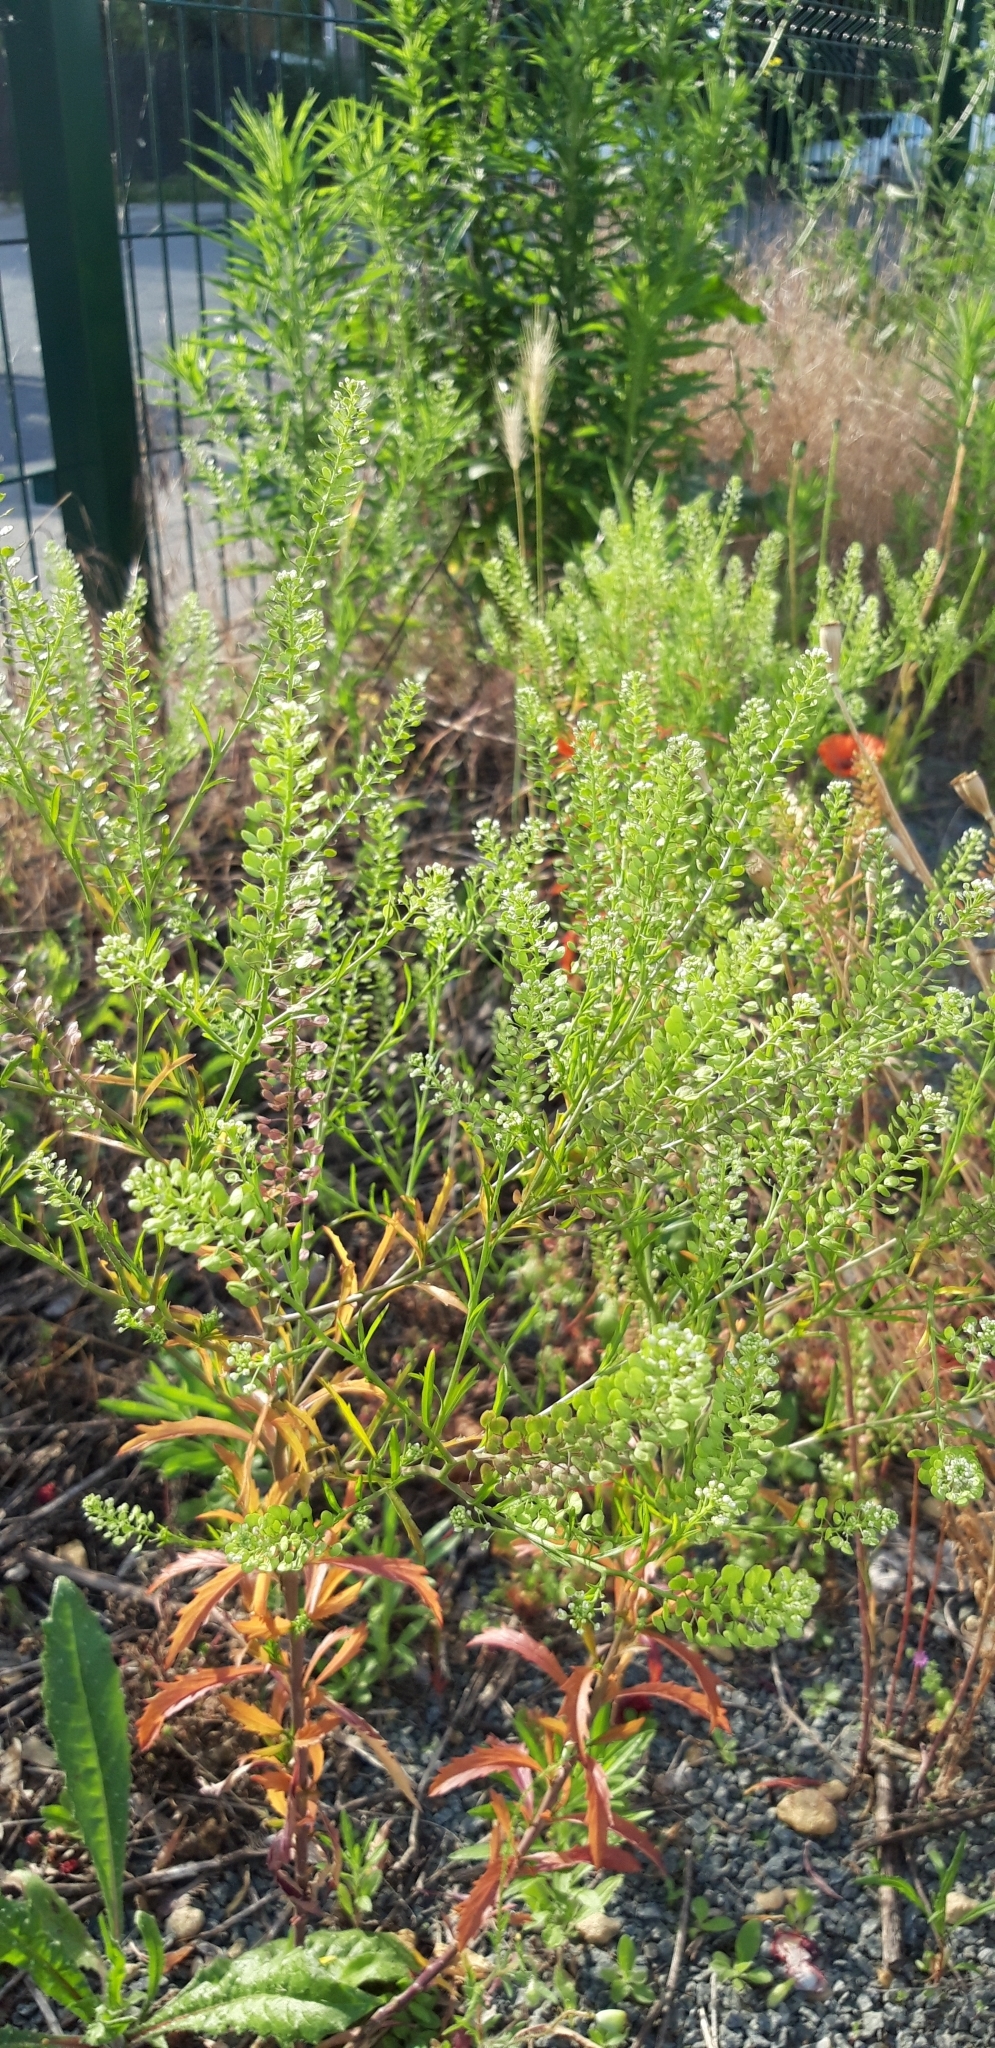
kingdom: Plantae
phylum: Tracheophyta
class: Magnoliopsida
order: Brassicales
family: Brassicaceae
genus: Lepidium
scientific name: Lepidium virginicum
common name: Least pepperwort
